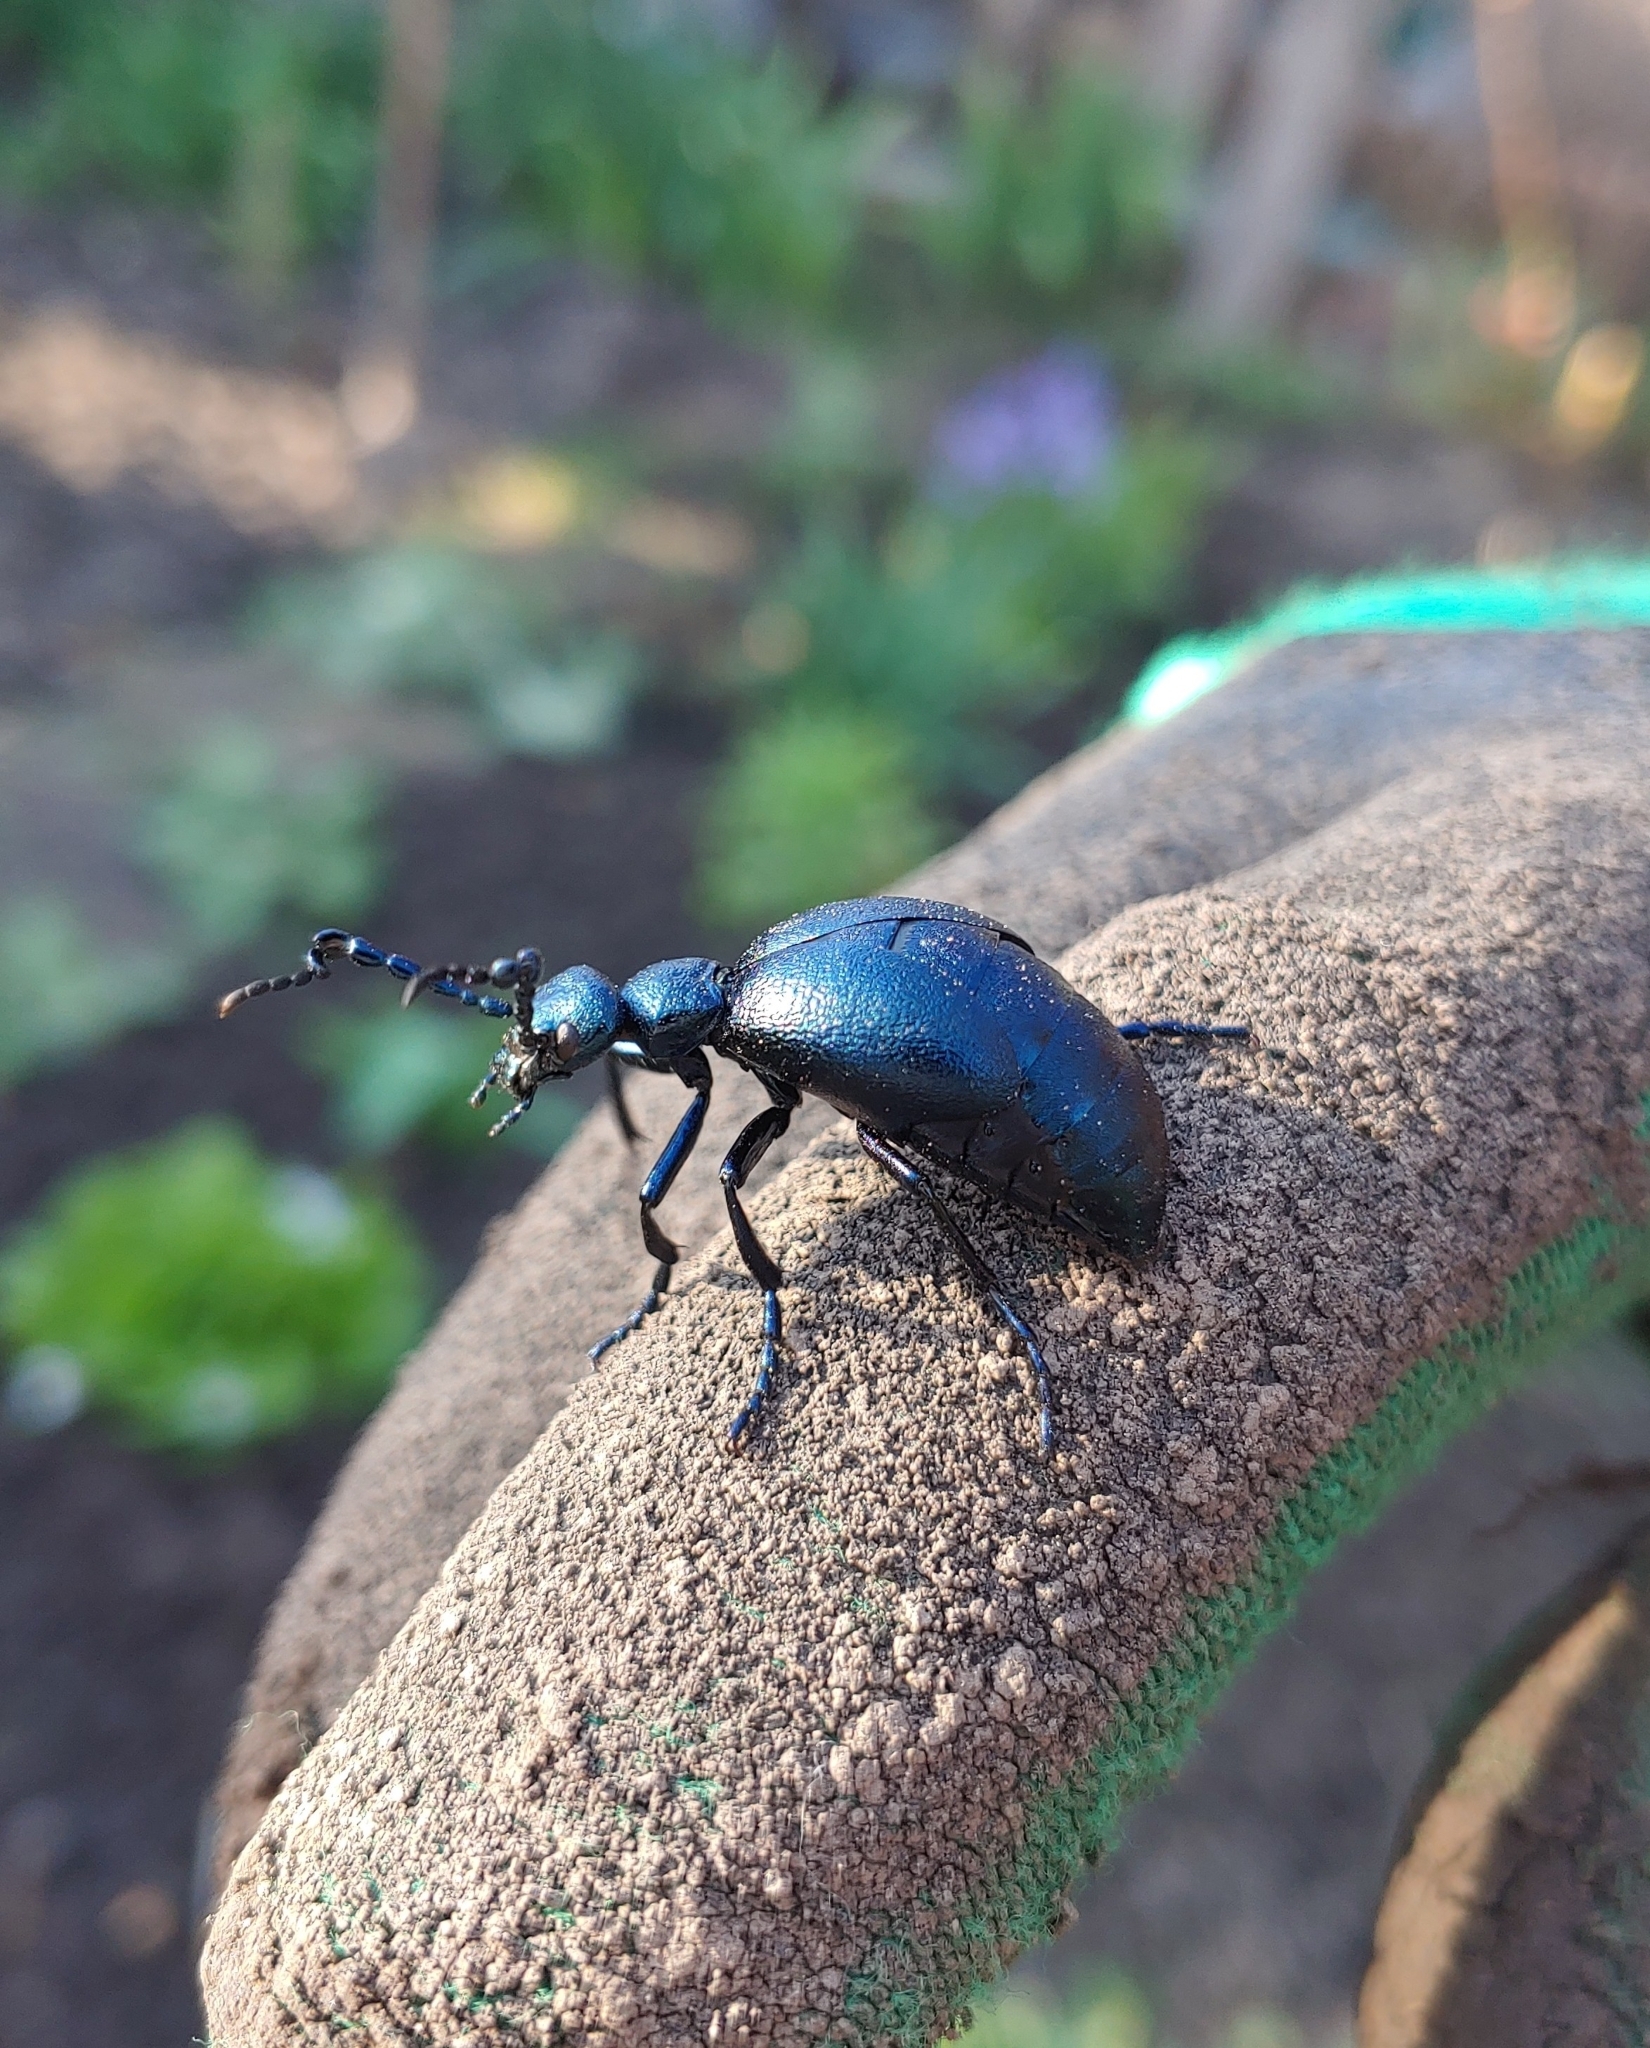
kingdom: Animalia
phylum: Arthropoda
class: Insecta
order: Coleoptera
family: Meloidae
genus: Meloe
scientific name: Meloe violaceus
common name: Violet oil-beetle
